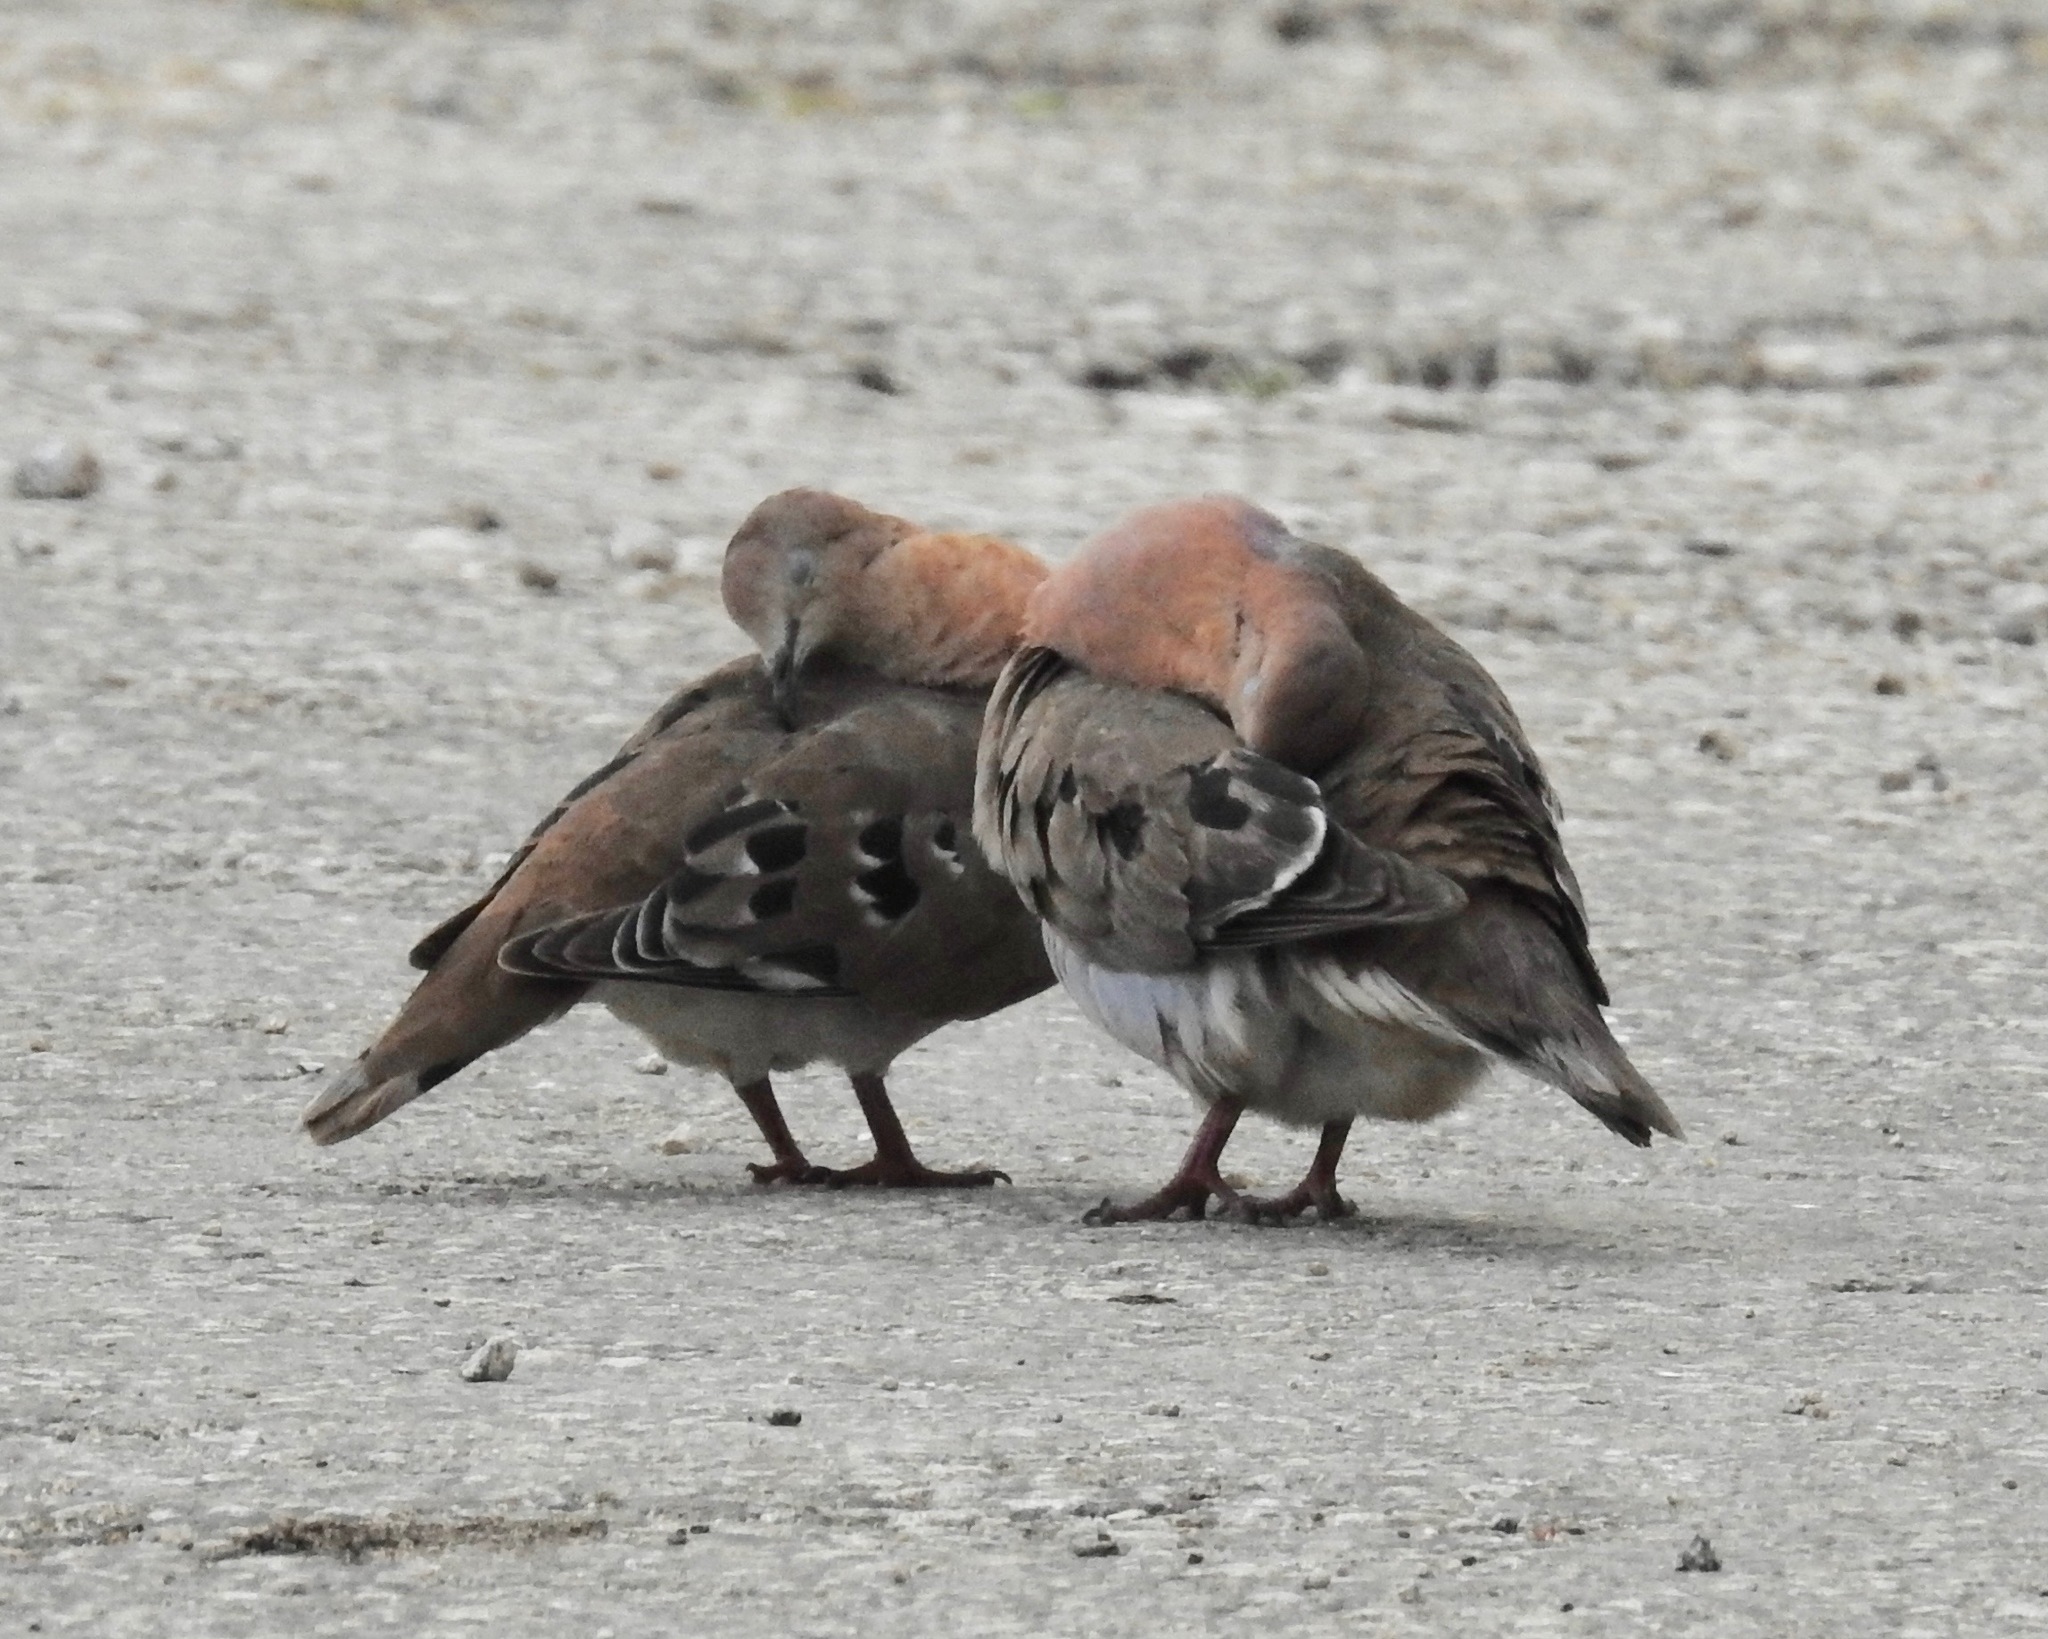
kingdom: Animalia
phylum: Chordata
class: Aves
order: Columbiformes
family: Columbidae
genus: Zenaida
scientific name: Zenaida aurita
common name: Zenaida dove
